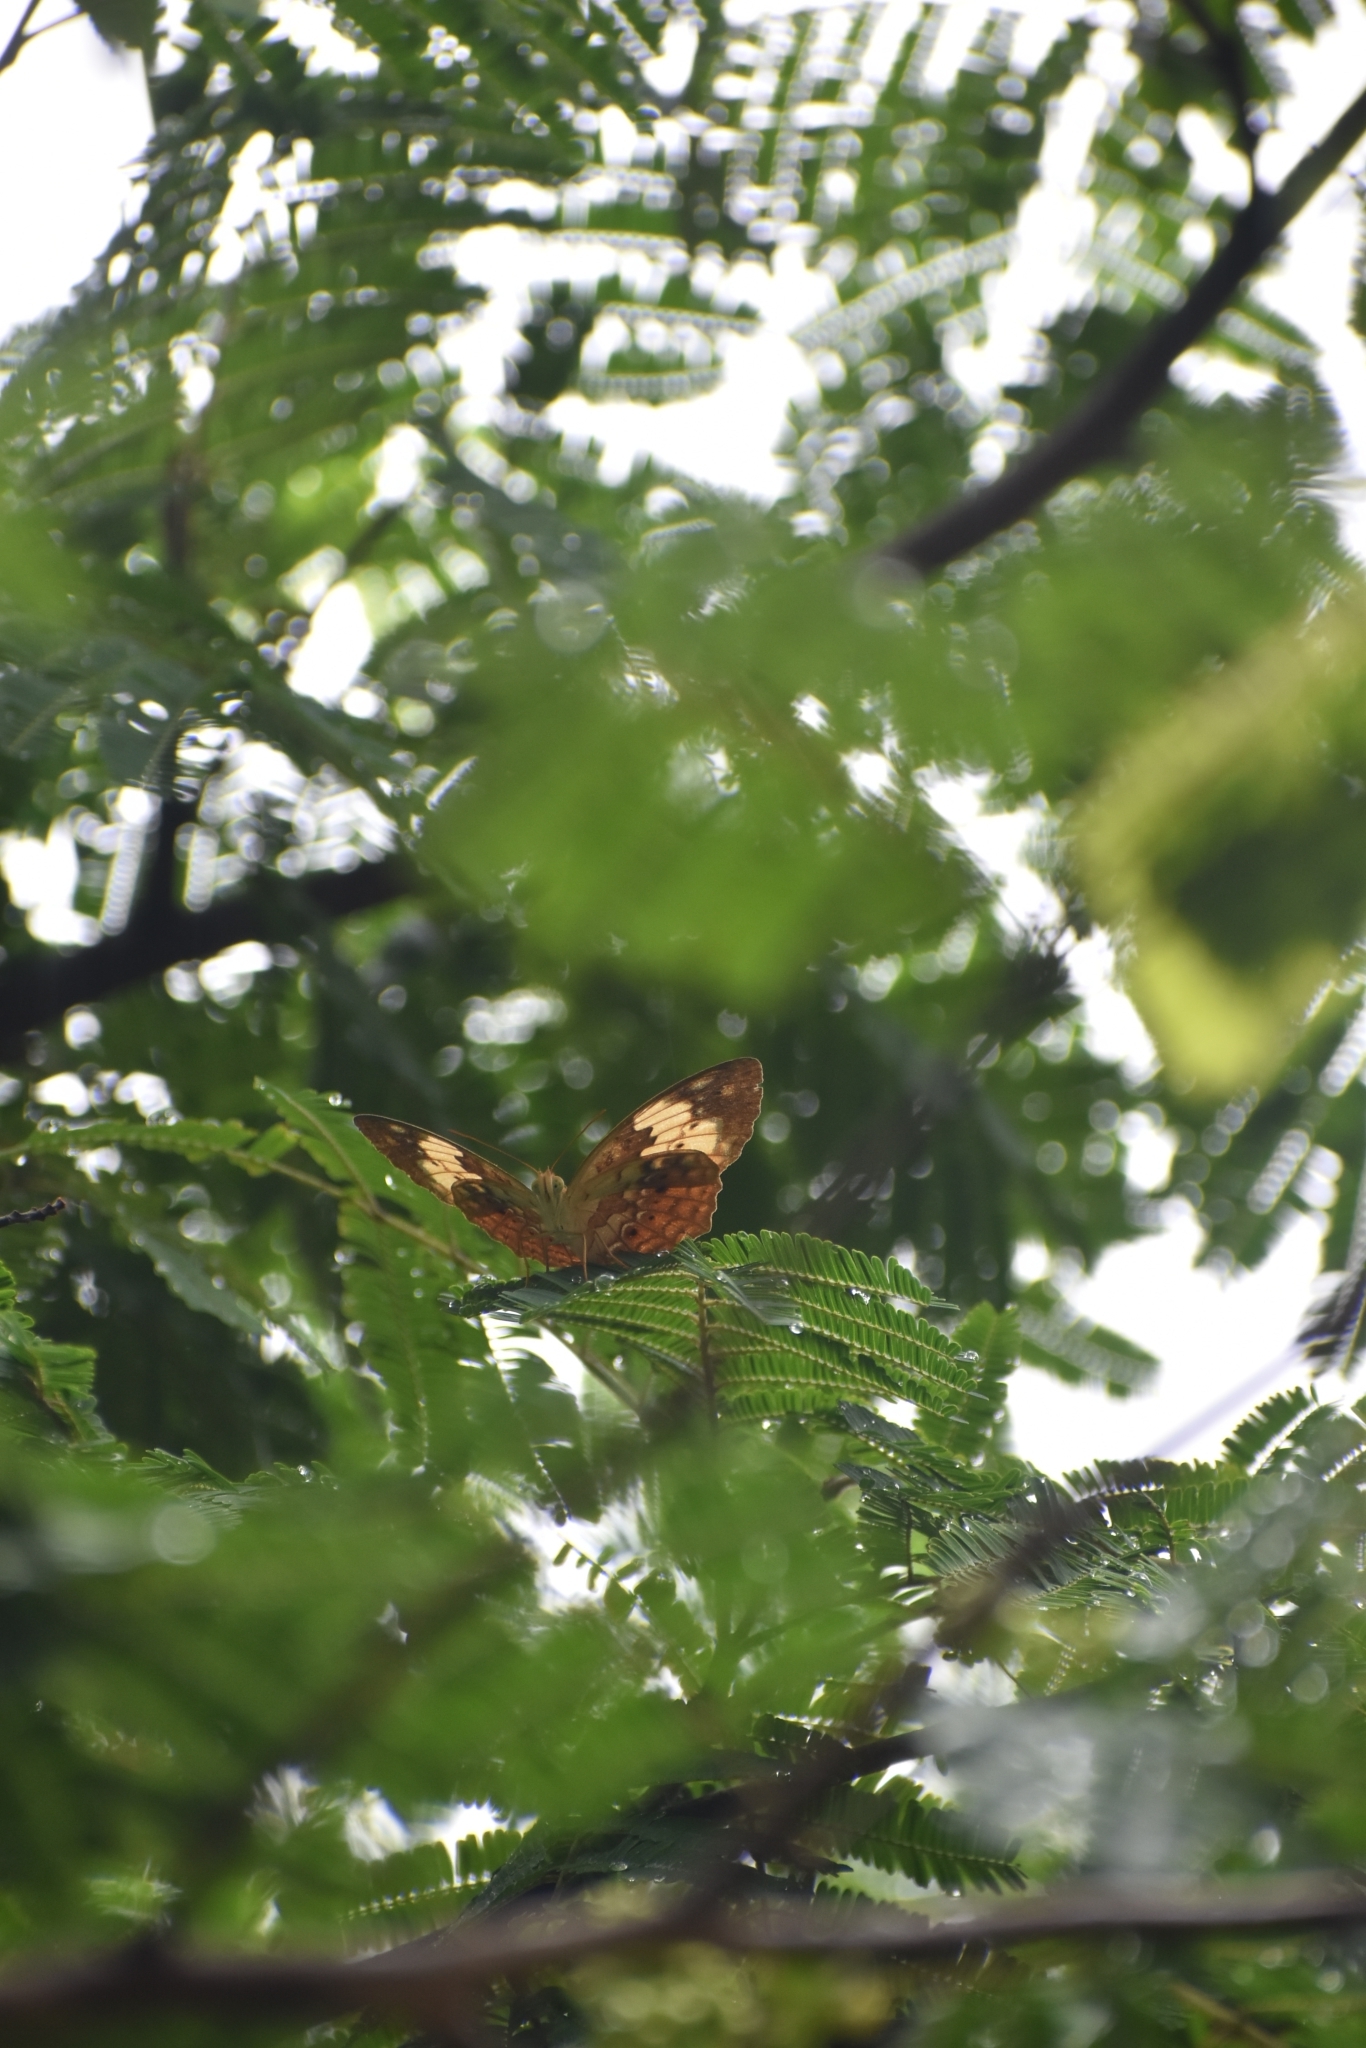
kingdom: Animalia
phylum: Arthropoda
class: Insecta
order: Lepidoptera
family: Nymphalidae
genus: Cupha
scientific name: Cupha erymanthis
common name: Rustic
